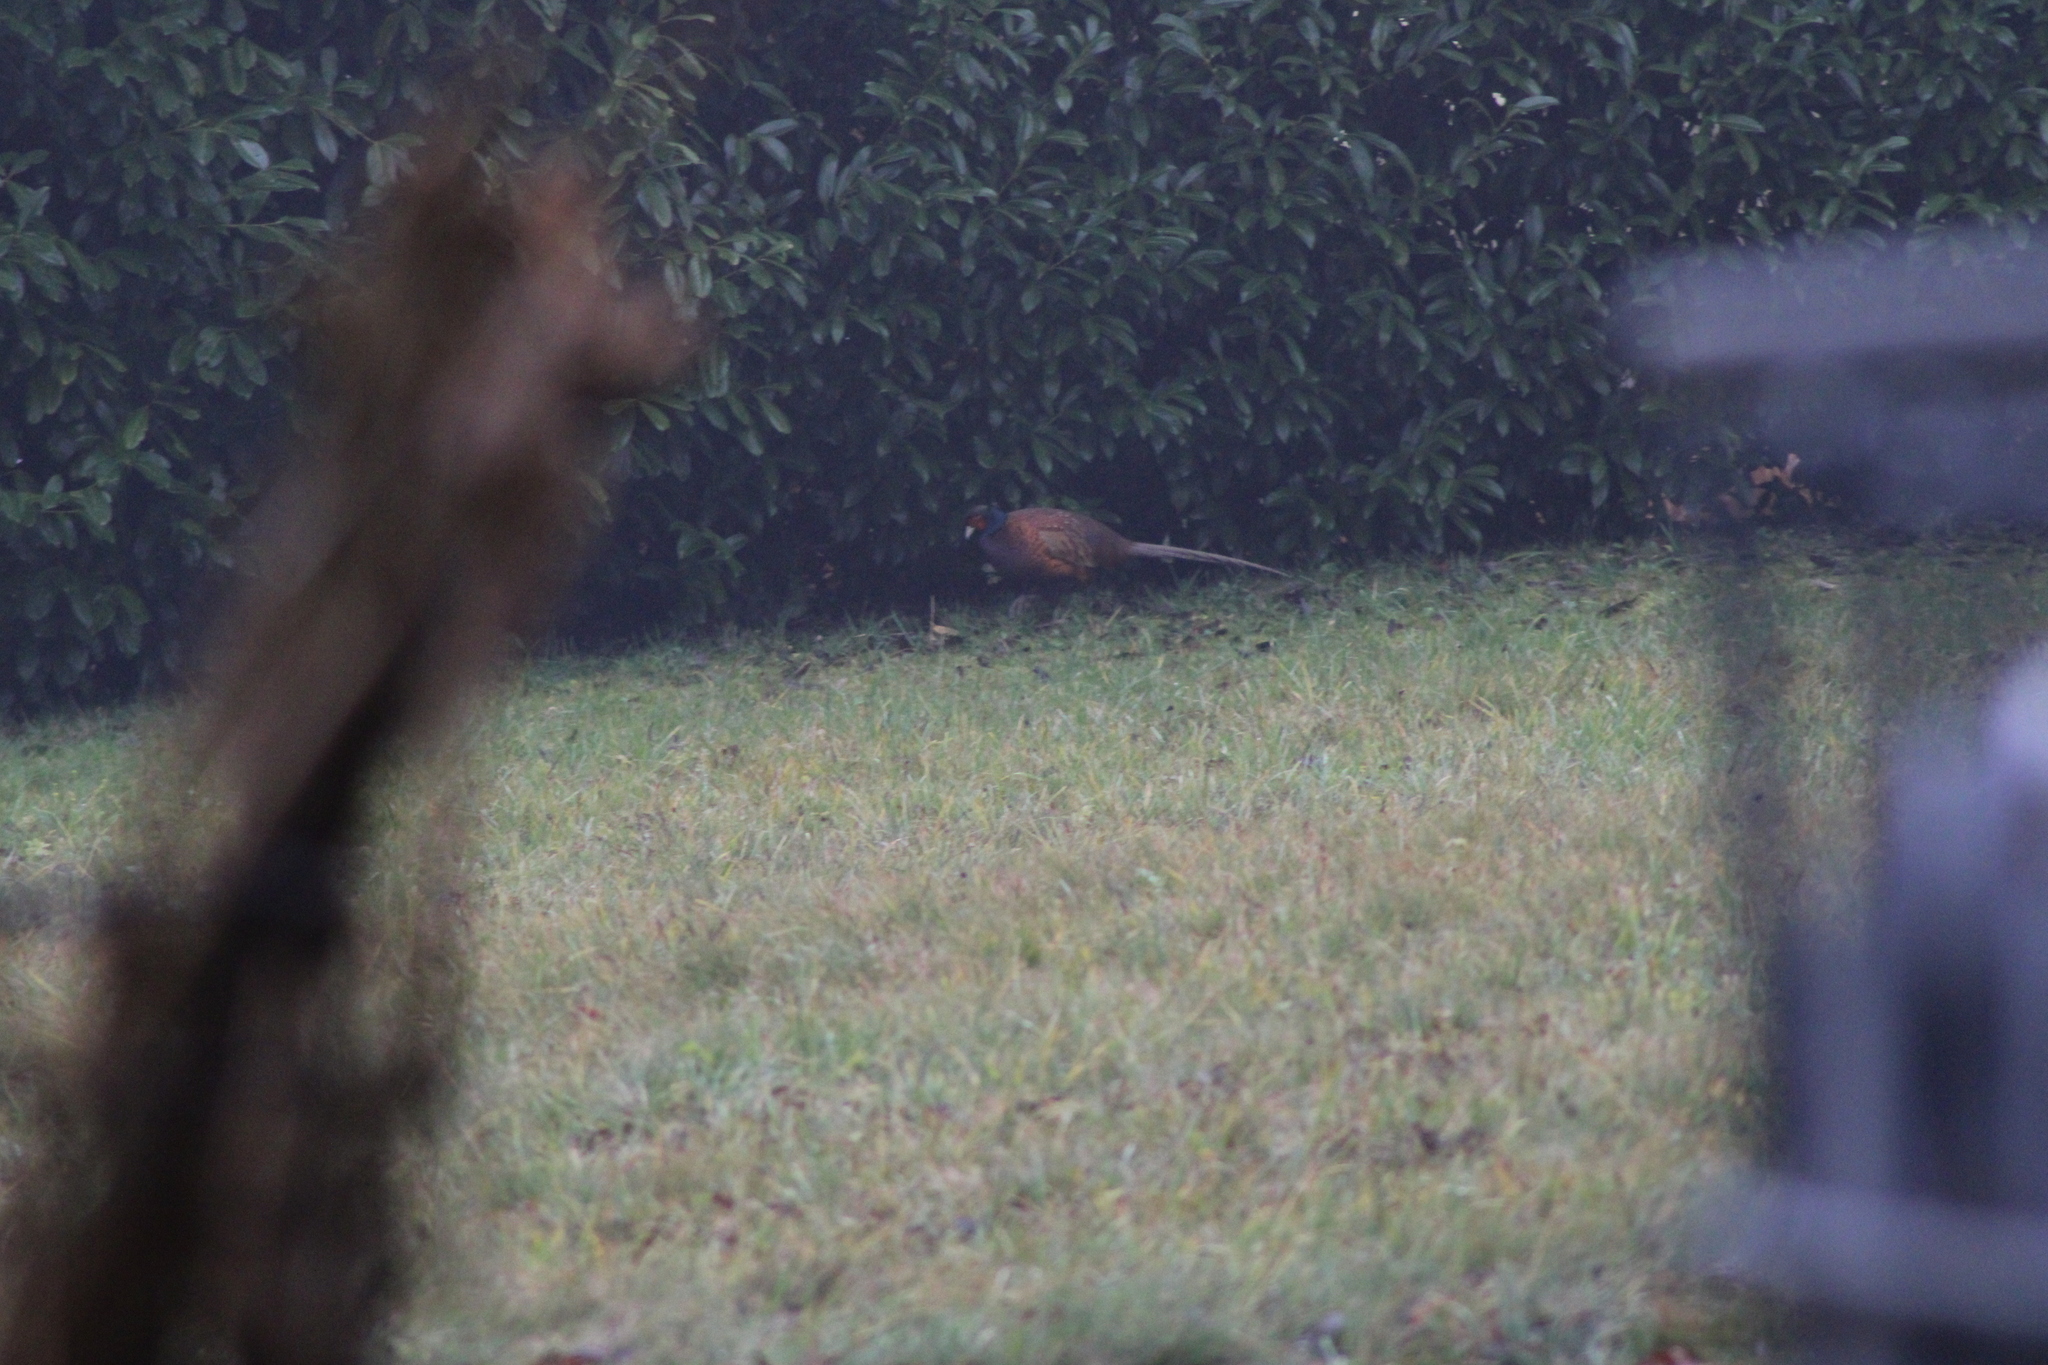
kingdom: Animalia
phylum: Chordata
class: Aves
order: Galliformes
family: Phasianidae
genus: Phasianus
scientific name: Phasianus colchicus
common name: Common pheasant
